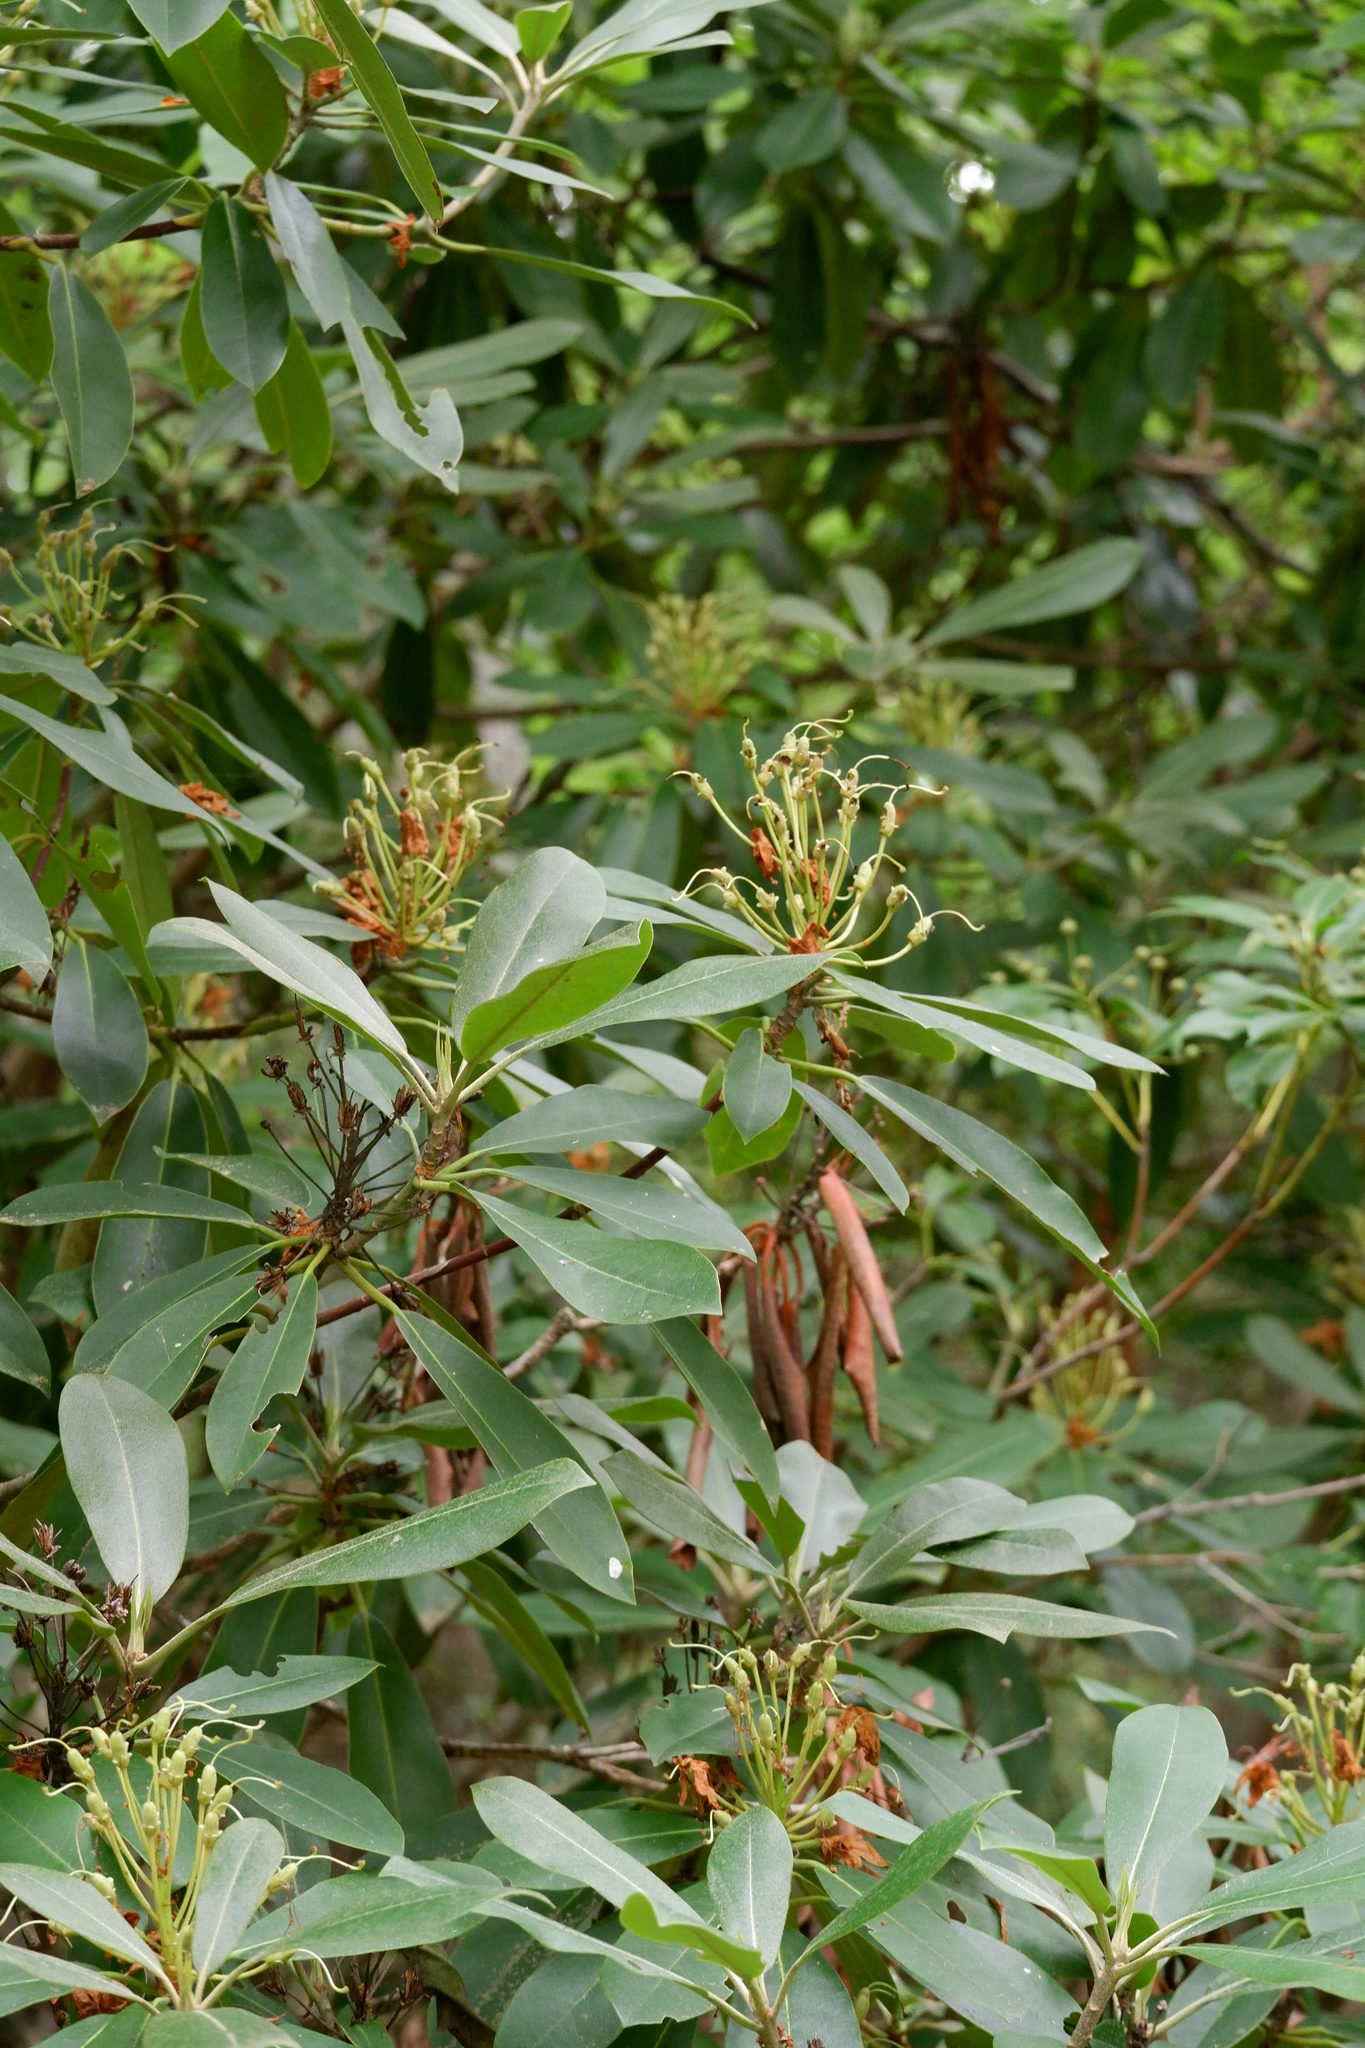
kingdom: Plantae
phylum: Tracheophyta
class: Magnoliopsida
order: Ericales
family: Ericaceae
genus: Rhododendron
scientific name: Rhododendron maximum
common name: Great rhododendron
